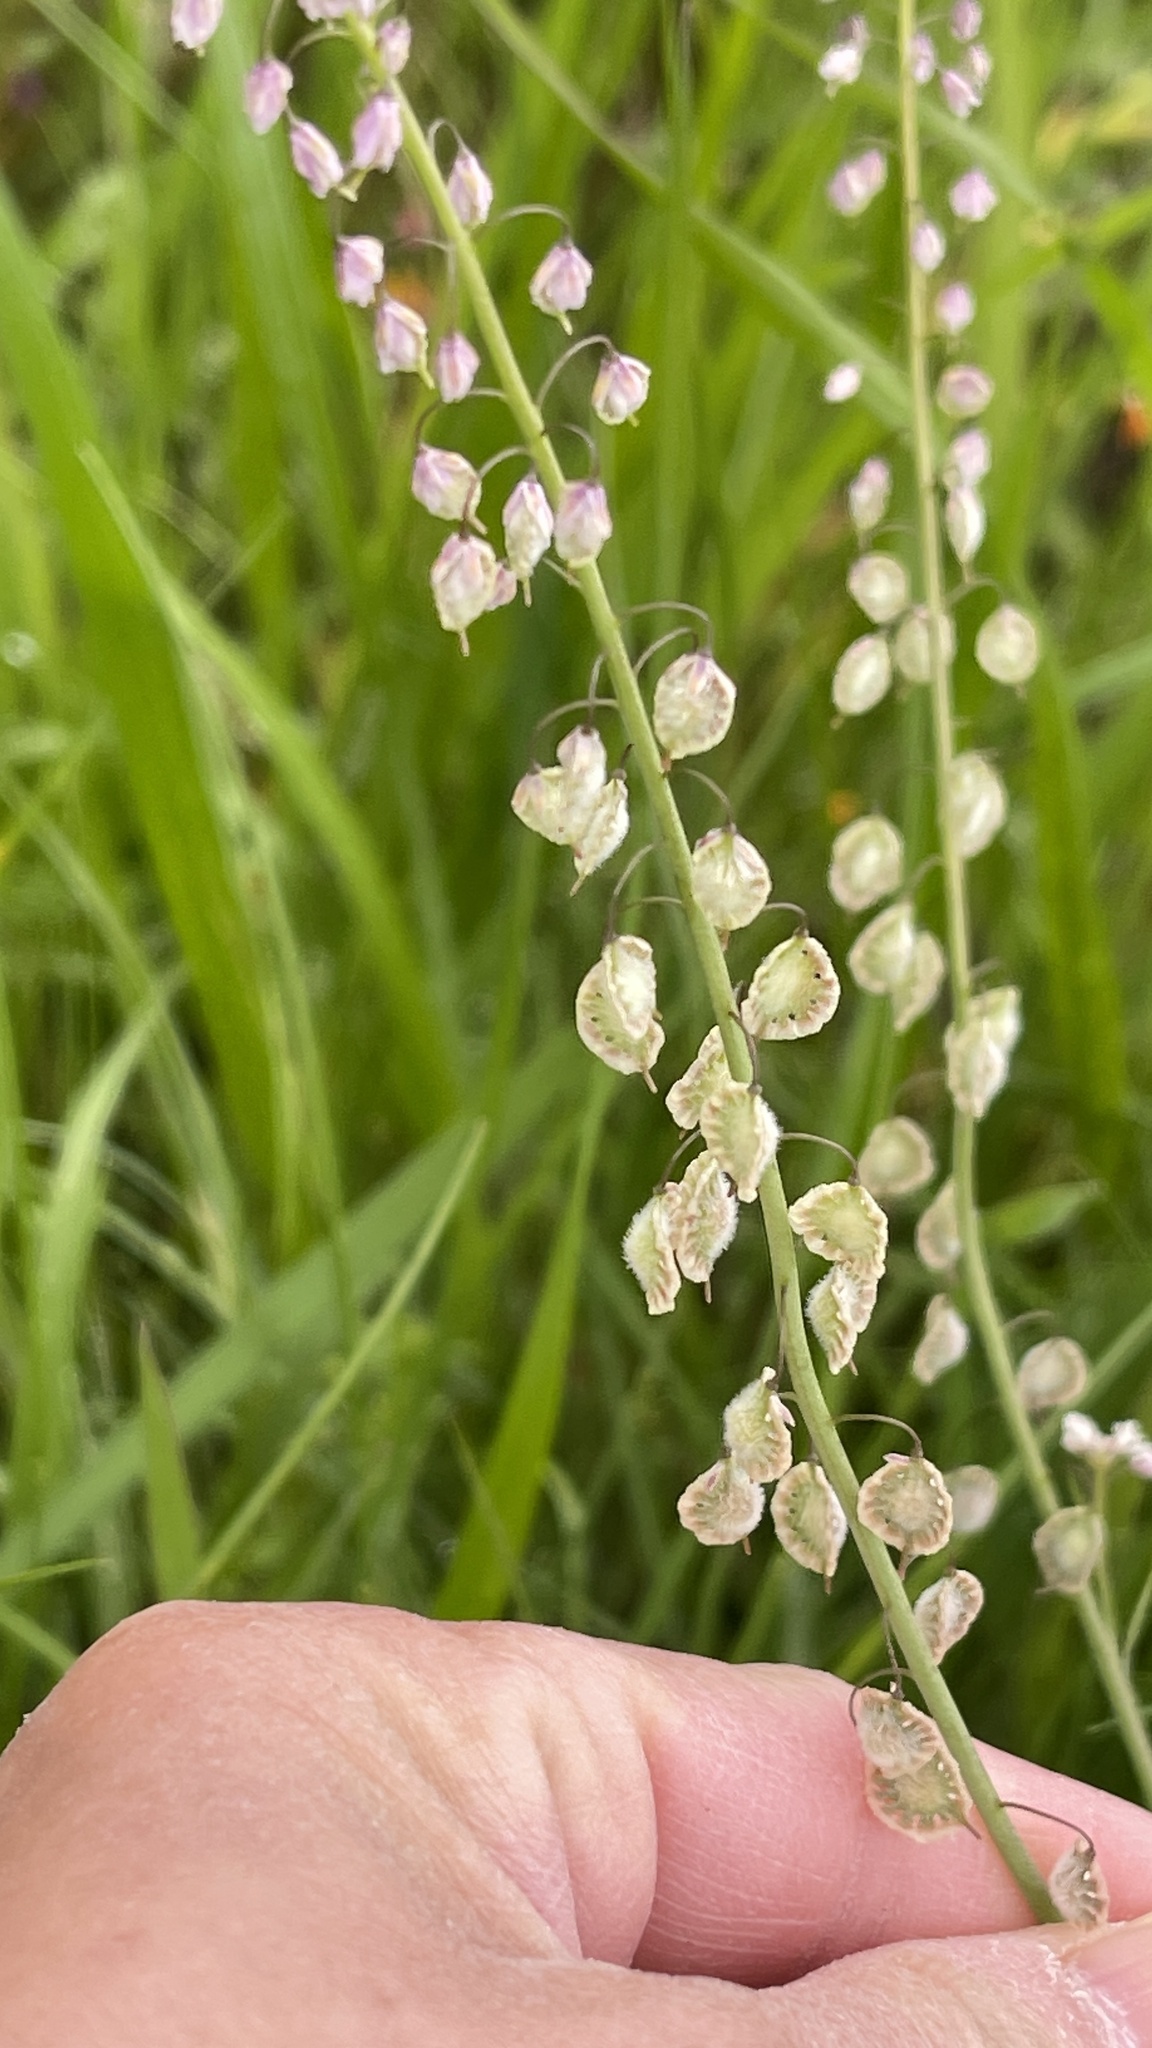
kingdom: Plantae
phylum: Tracheophyta
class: Magnoliopsida
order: Brassicales
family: Brassicaceae
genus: Thysanocarpus
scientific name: Thysanocarpus curvipes
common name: Sand fringepod
